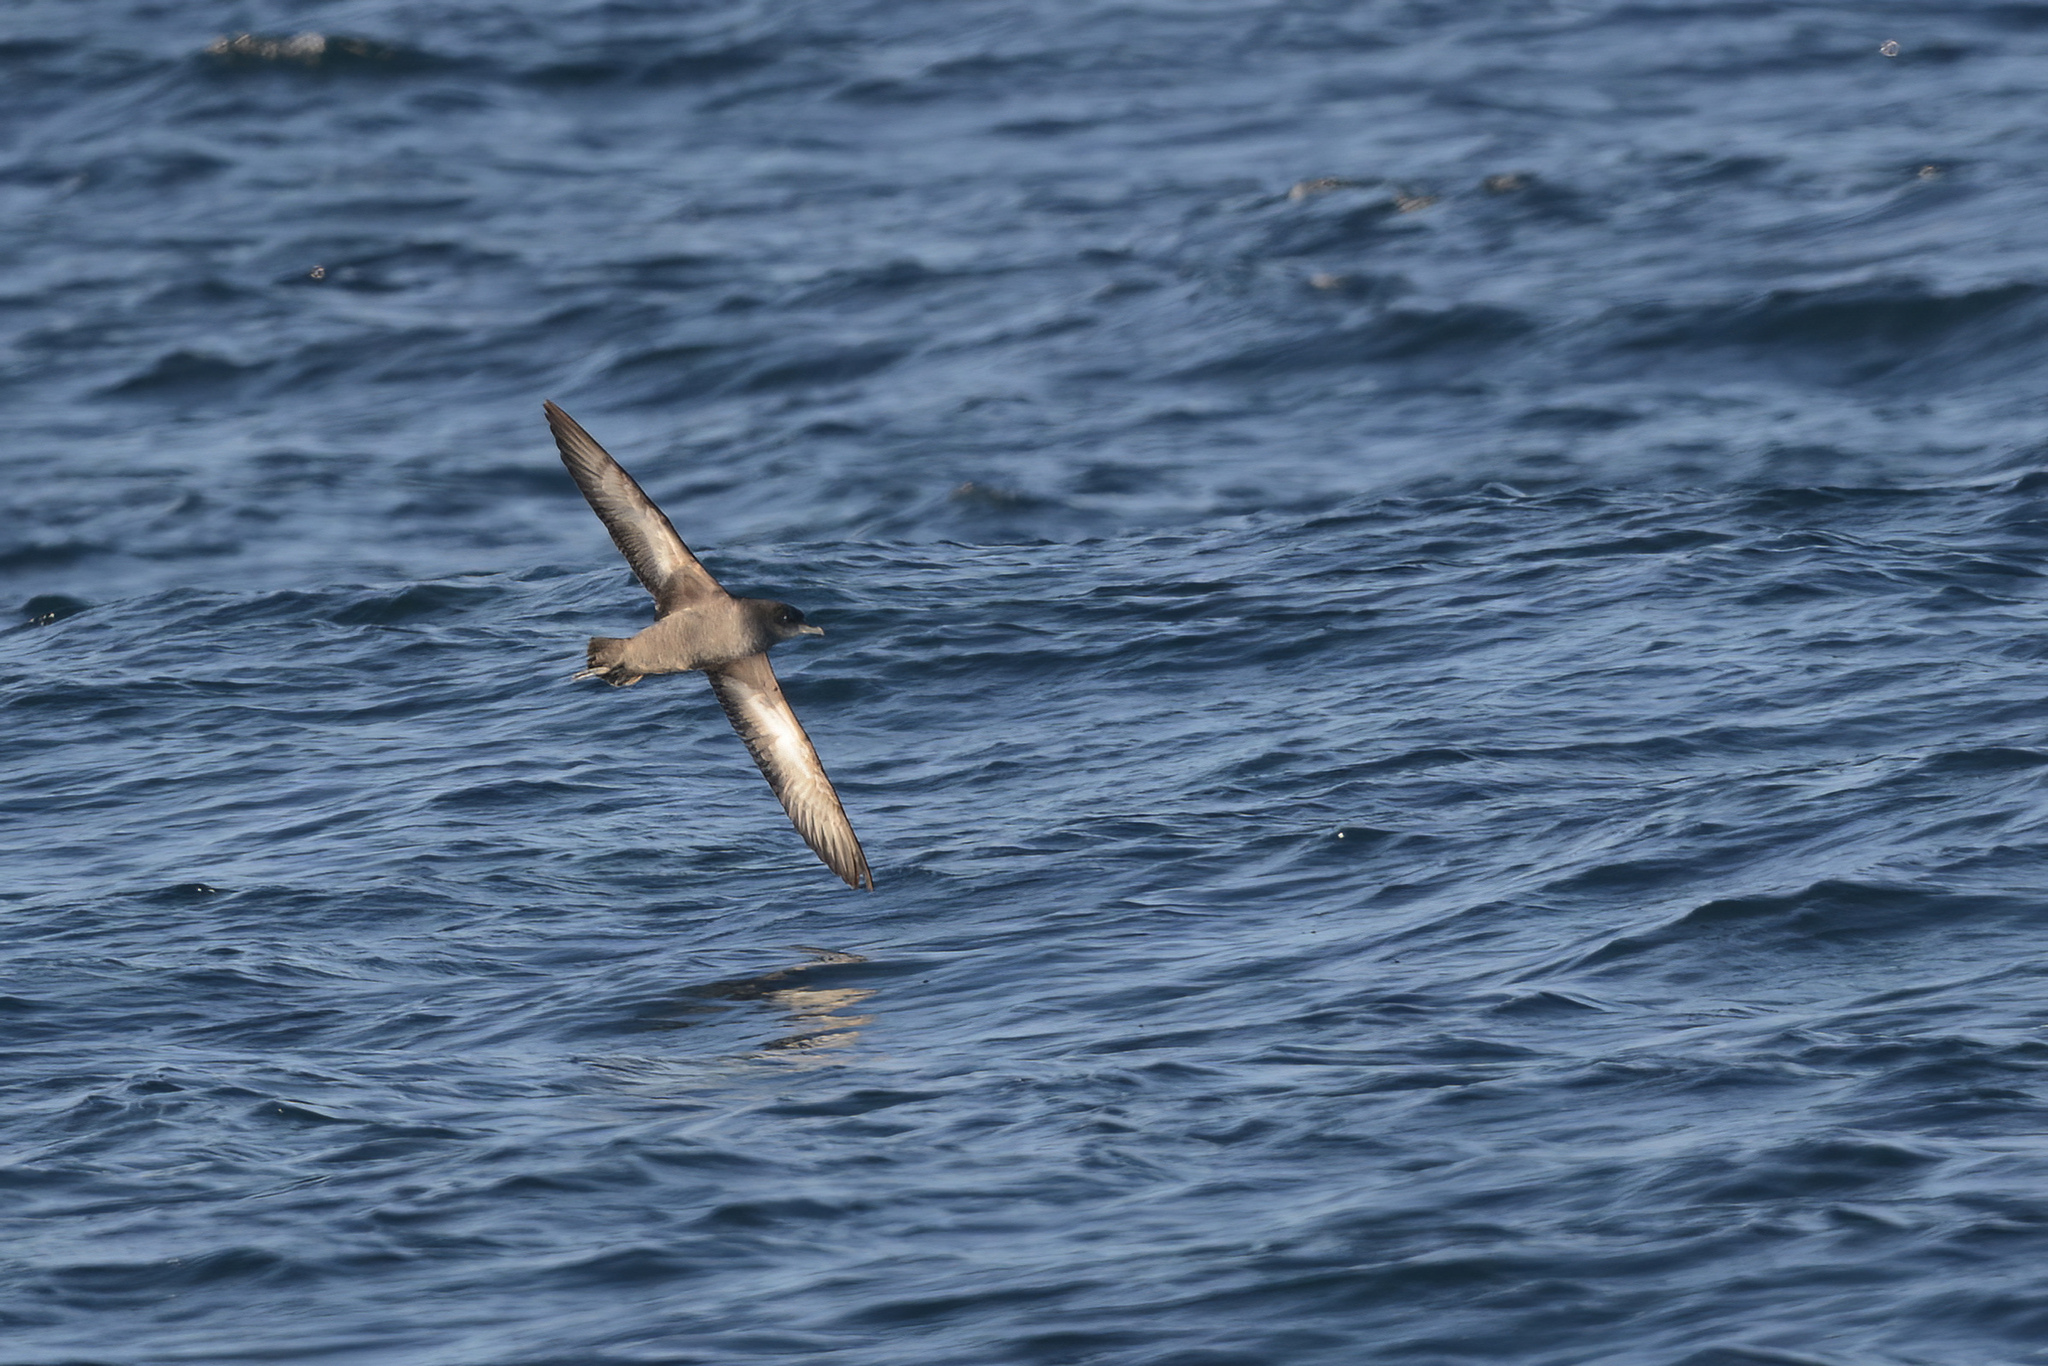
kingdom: Animalia
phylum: Chordata
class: Aves
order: Procellariiformes
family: Procellariidae
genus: Puffinus
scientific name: Puffinus tenuirostris
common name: Short-tailed shearwater
